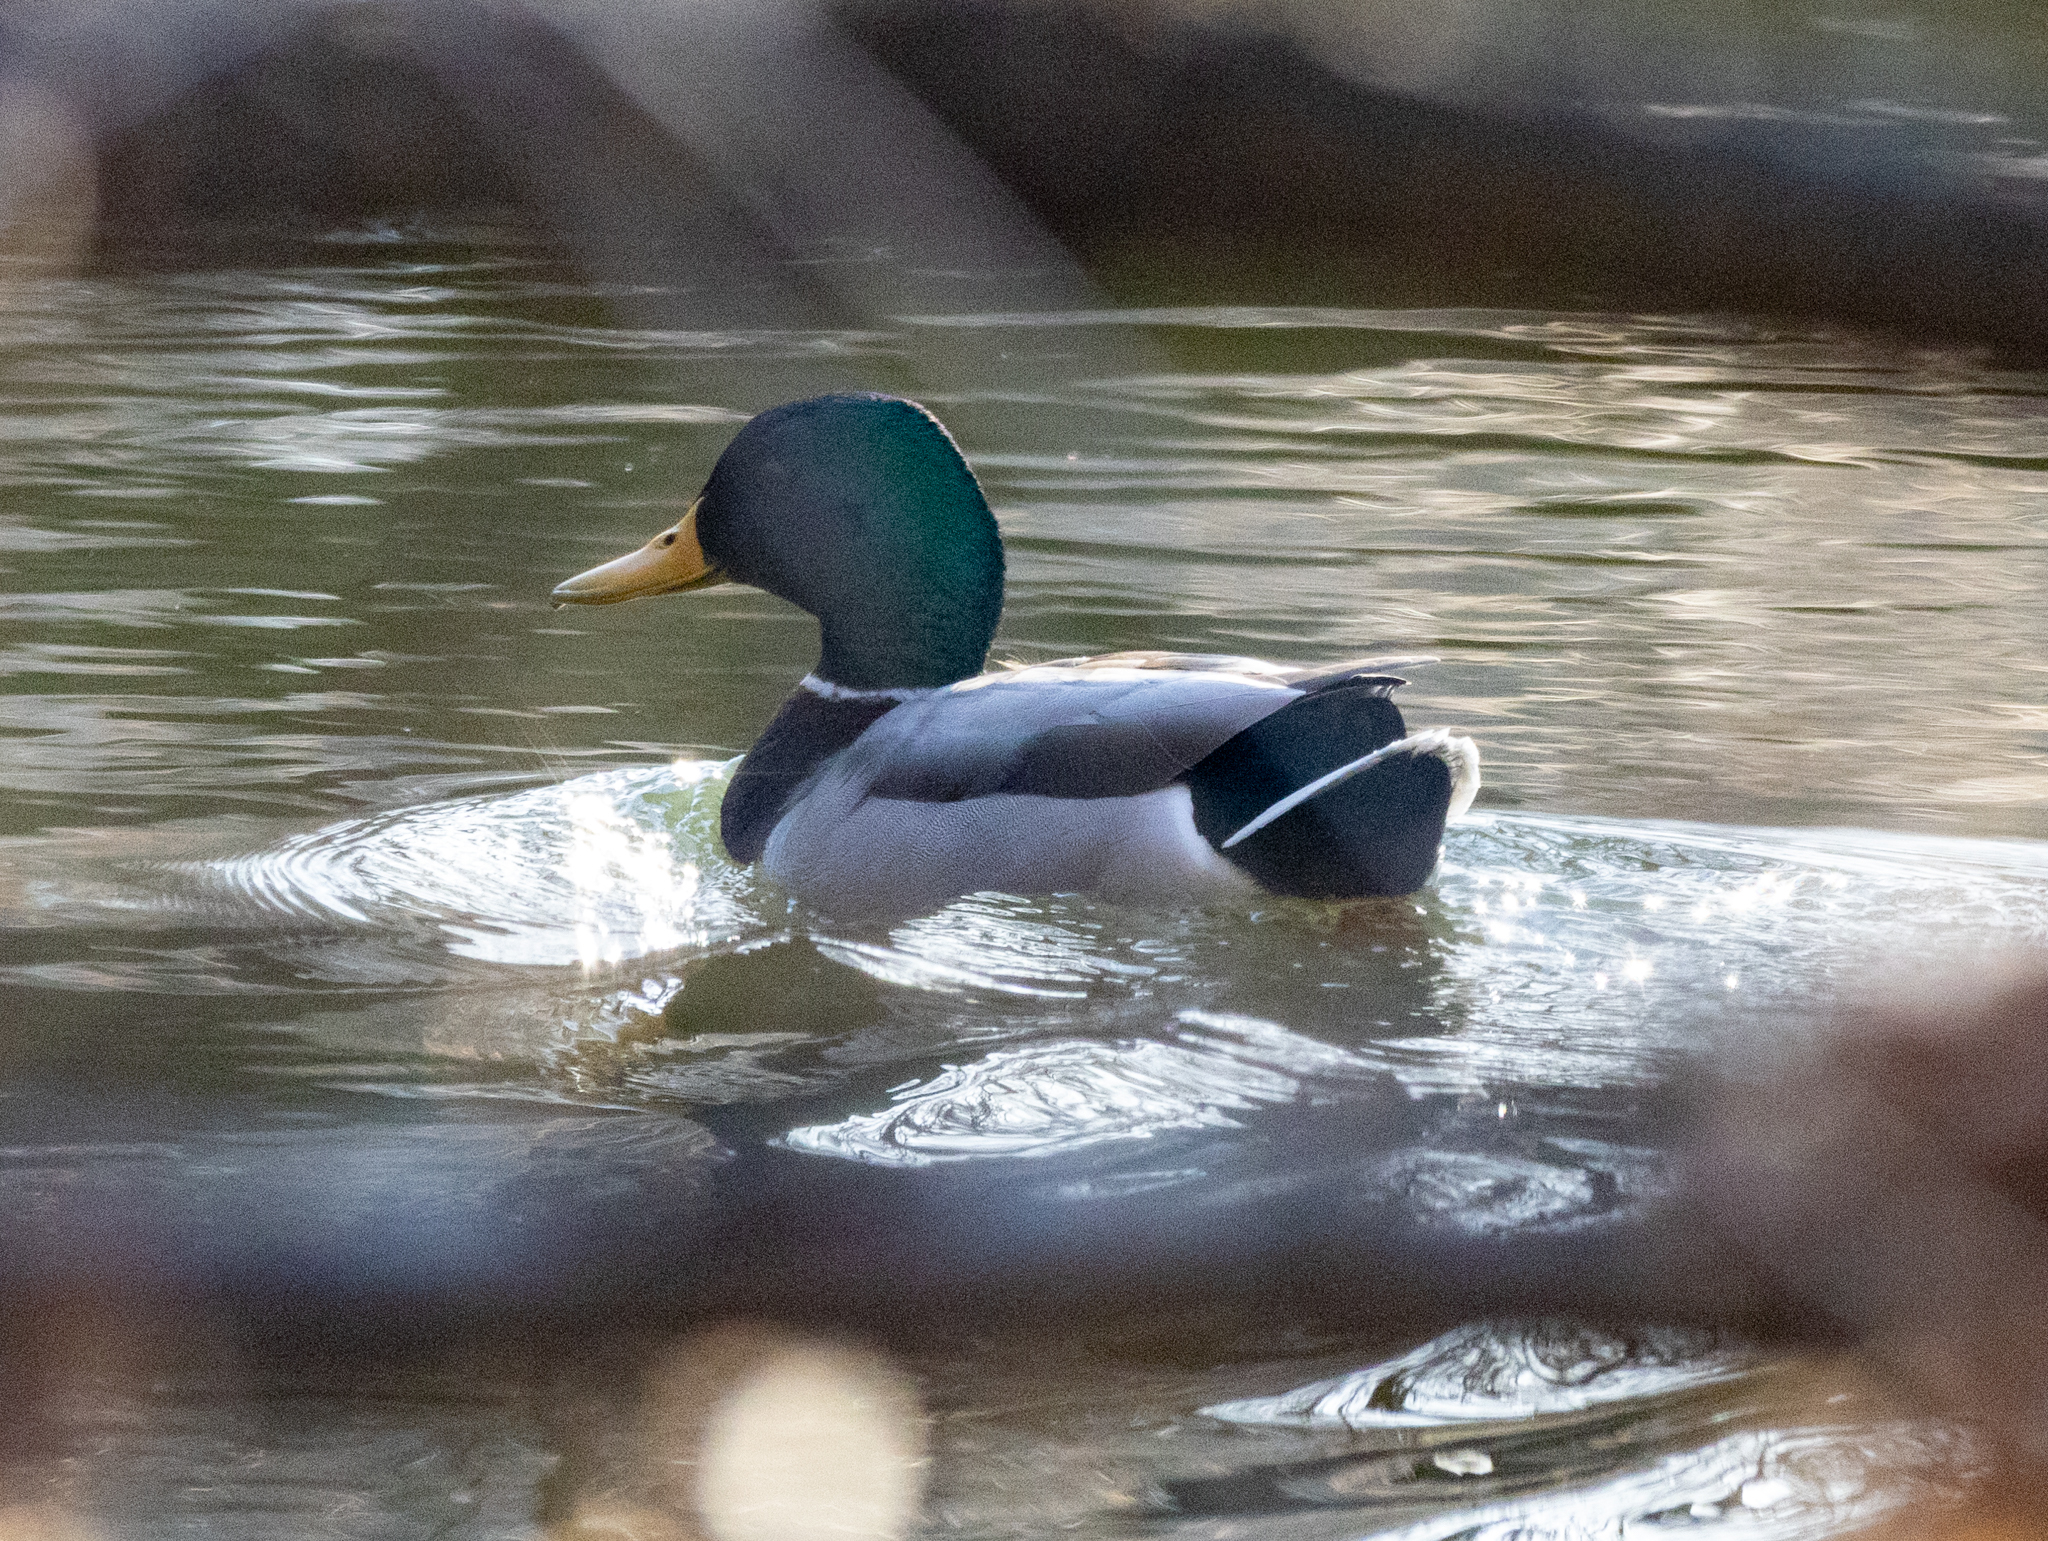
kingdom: Animalia
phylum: Chordata
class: Aves
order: Anseriformes
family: Anatidae
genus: Anas
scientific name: Anas platyrhynchos
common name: Mallard
